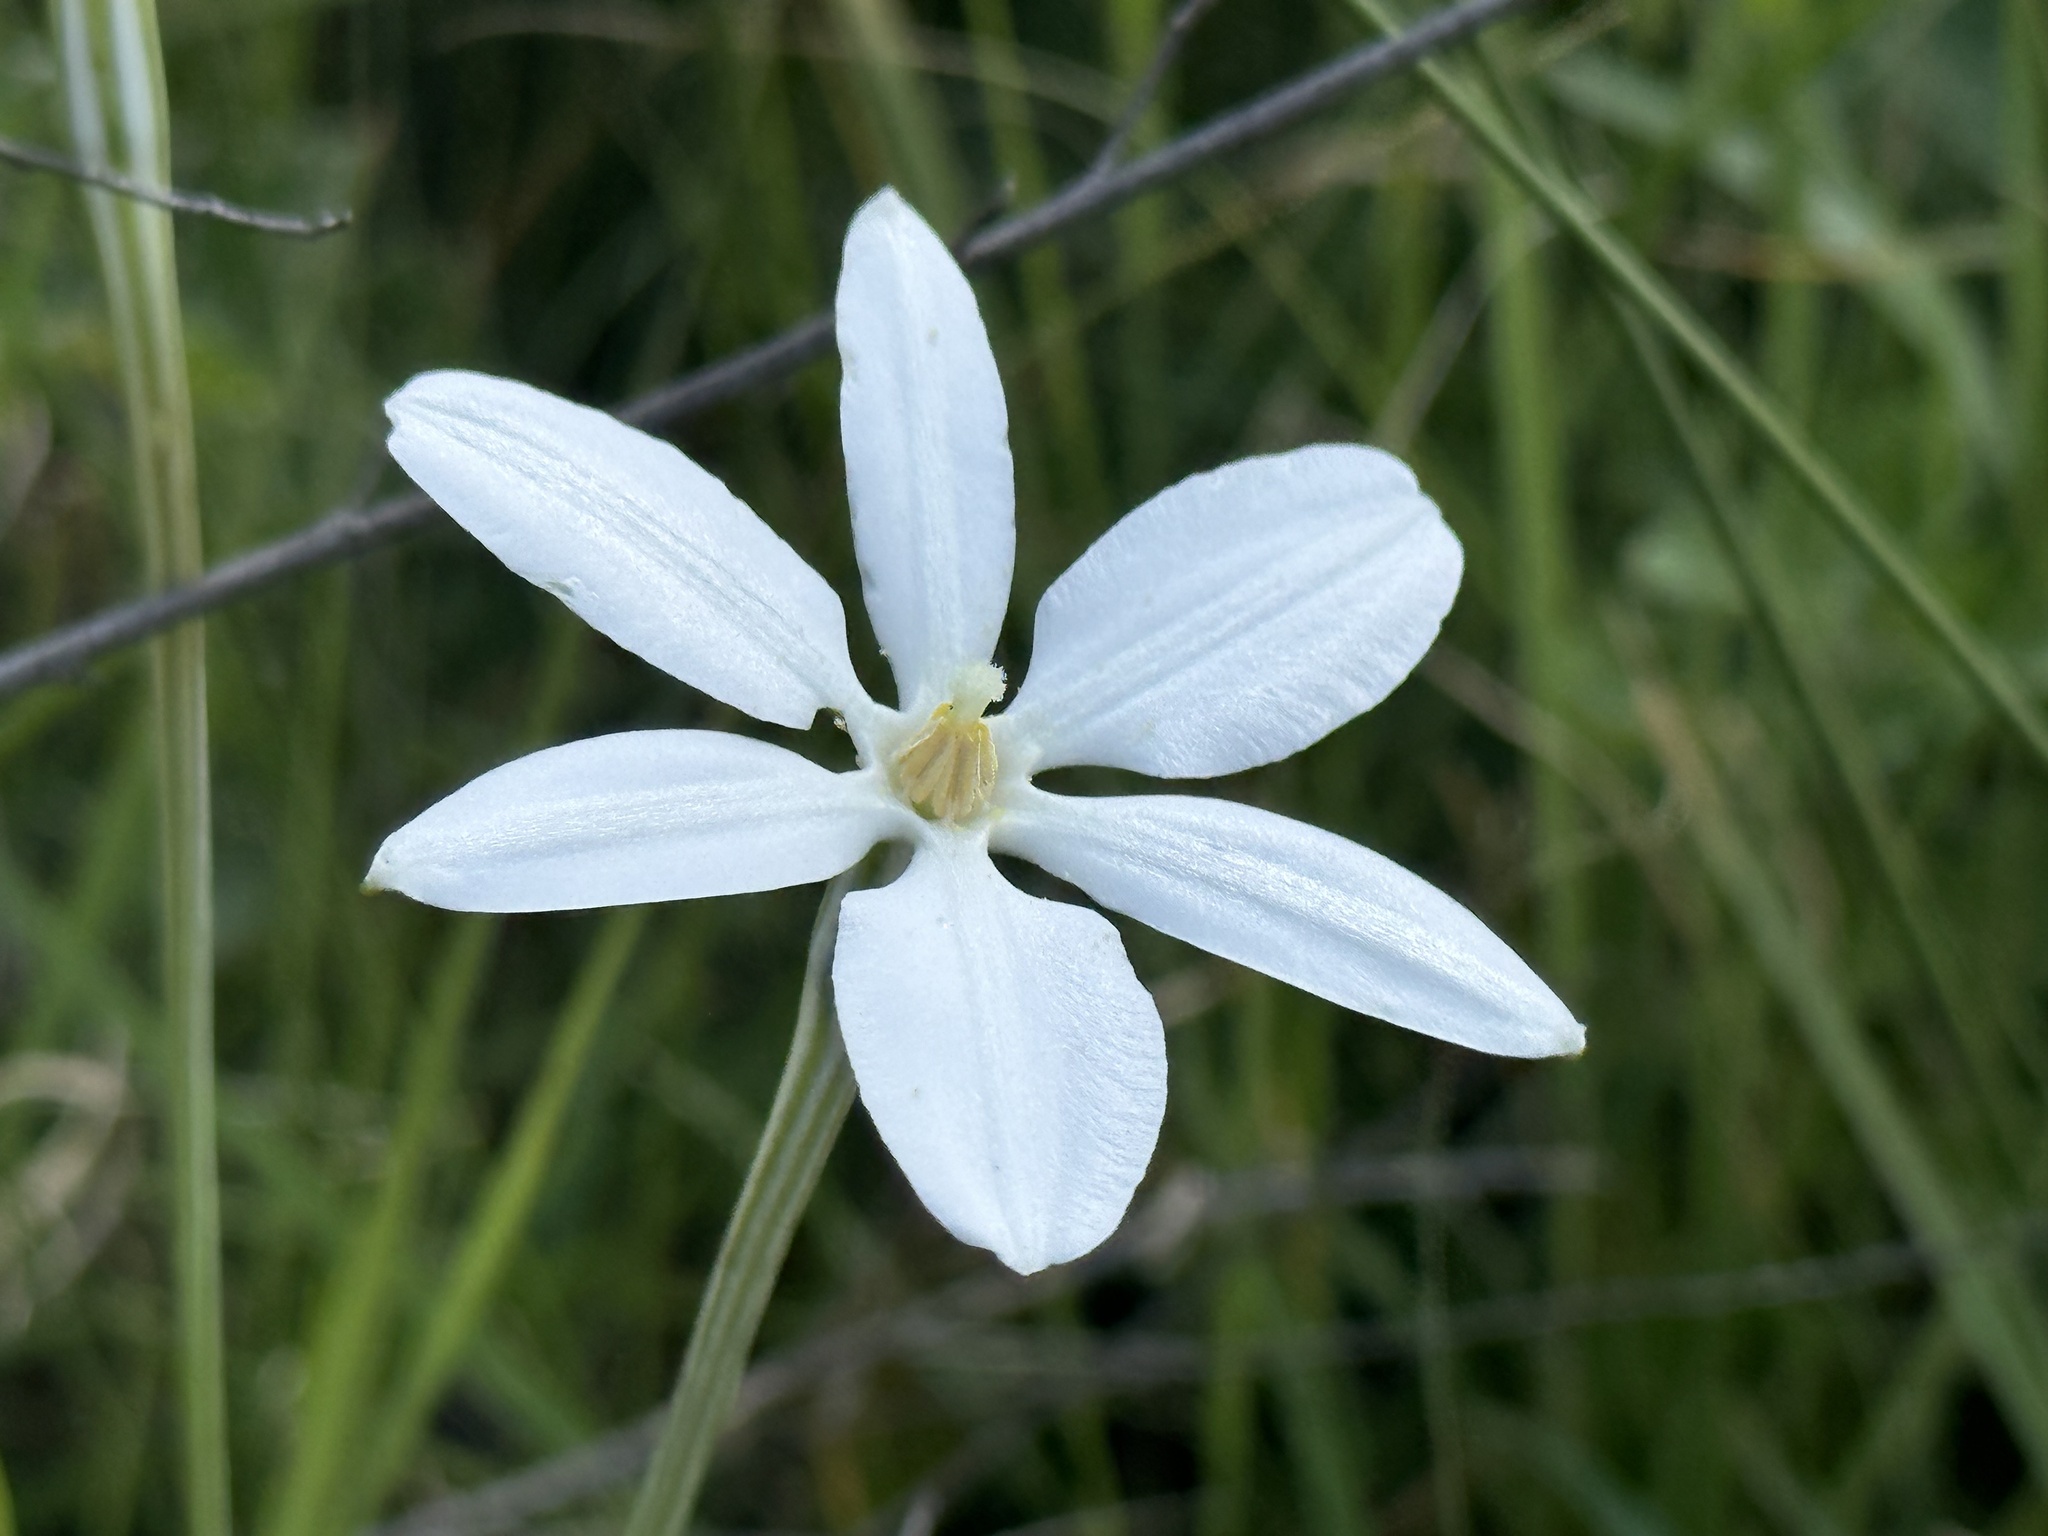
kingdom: Plantae
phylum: Tracheophyta
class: Liliopsida
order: Asparagales
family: Asparagaceae
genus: Milla
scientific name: Milla biflora
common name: Mexican-star
